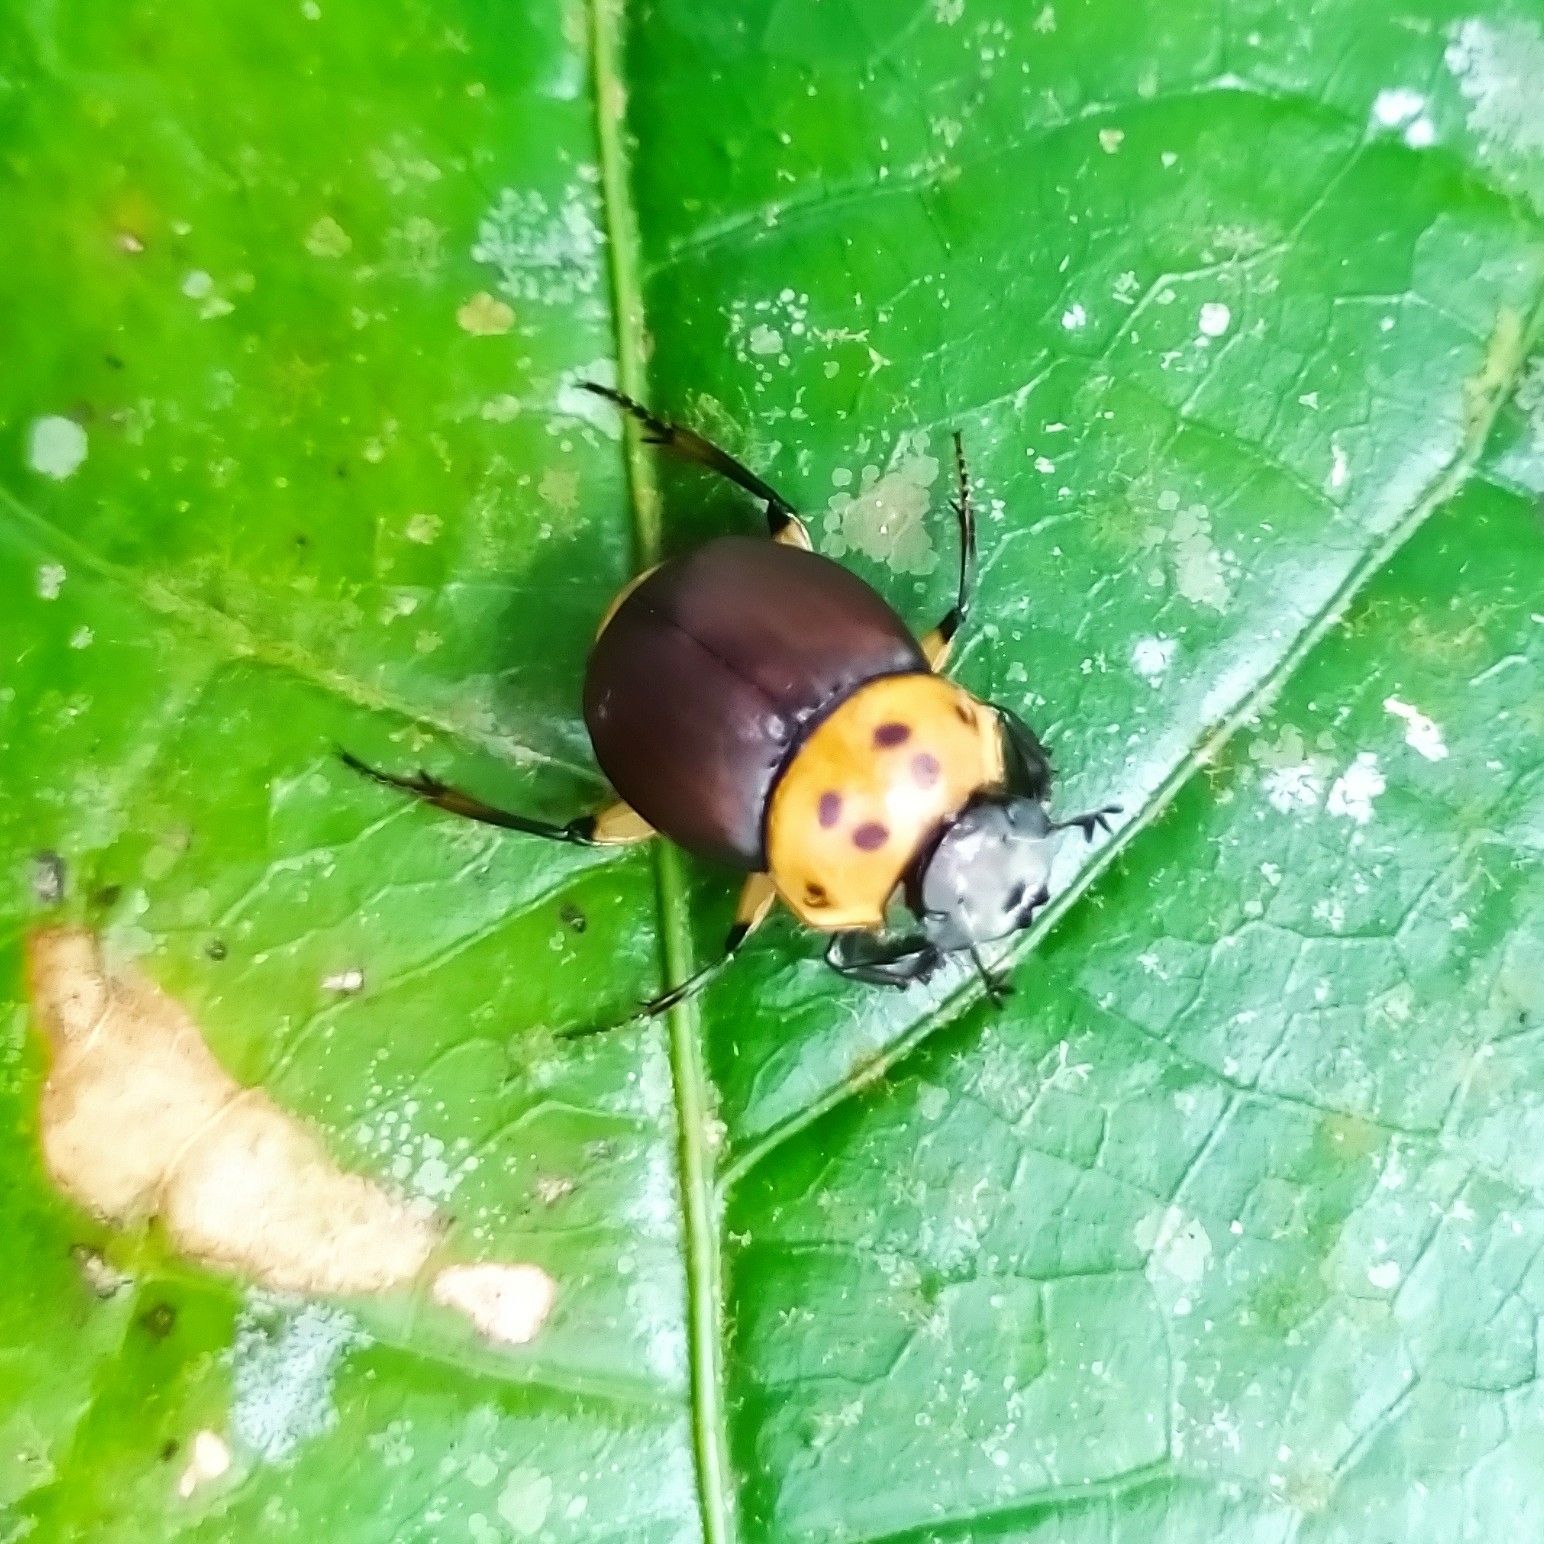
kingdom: Animalia
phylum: Arthropoda
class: Insecta
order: Coleoptera
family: Scarabaeidae
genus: Canthon
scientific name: Canthon triangularis
